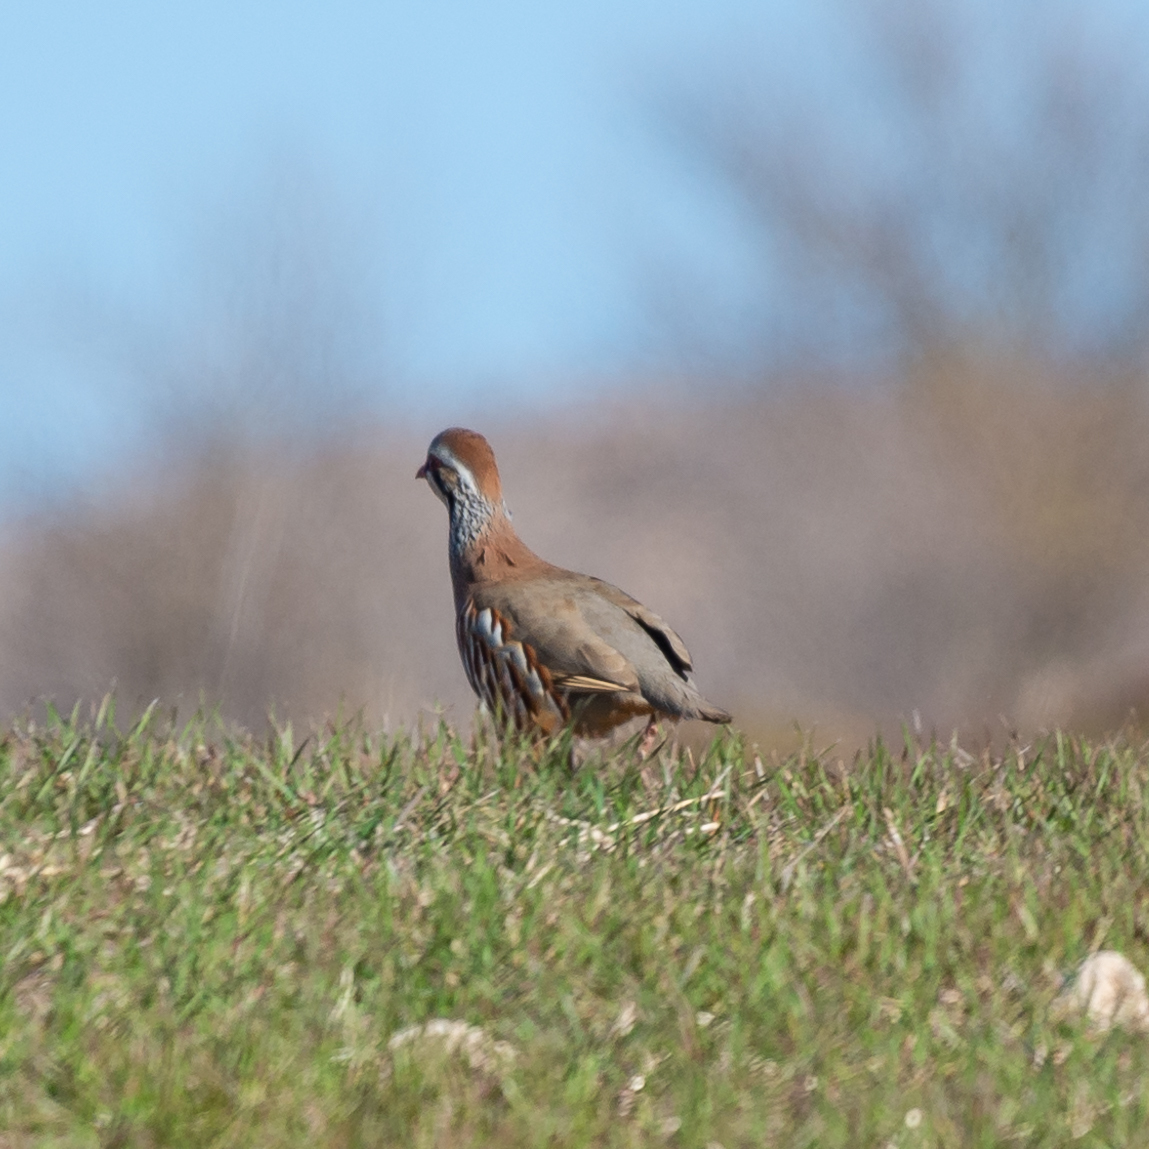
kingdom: Animalia
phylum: Chordata
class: Aves
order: Galliformes
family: Phasianidae
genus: Alectoris
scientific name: Alectoris rufa
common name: Red-legged partridge
